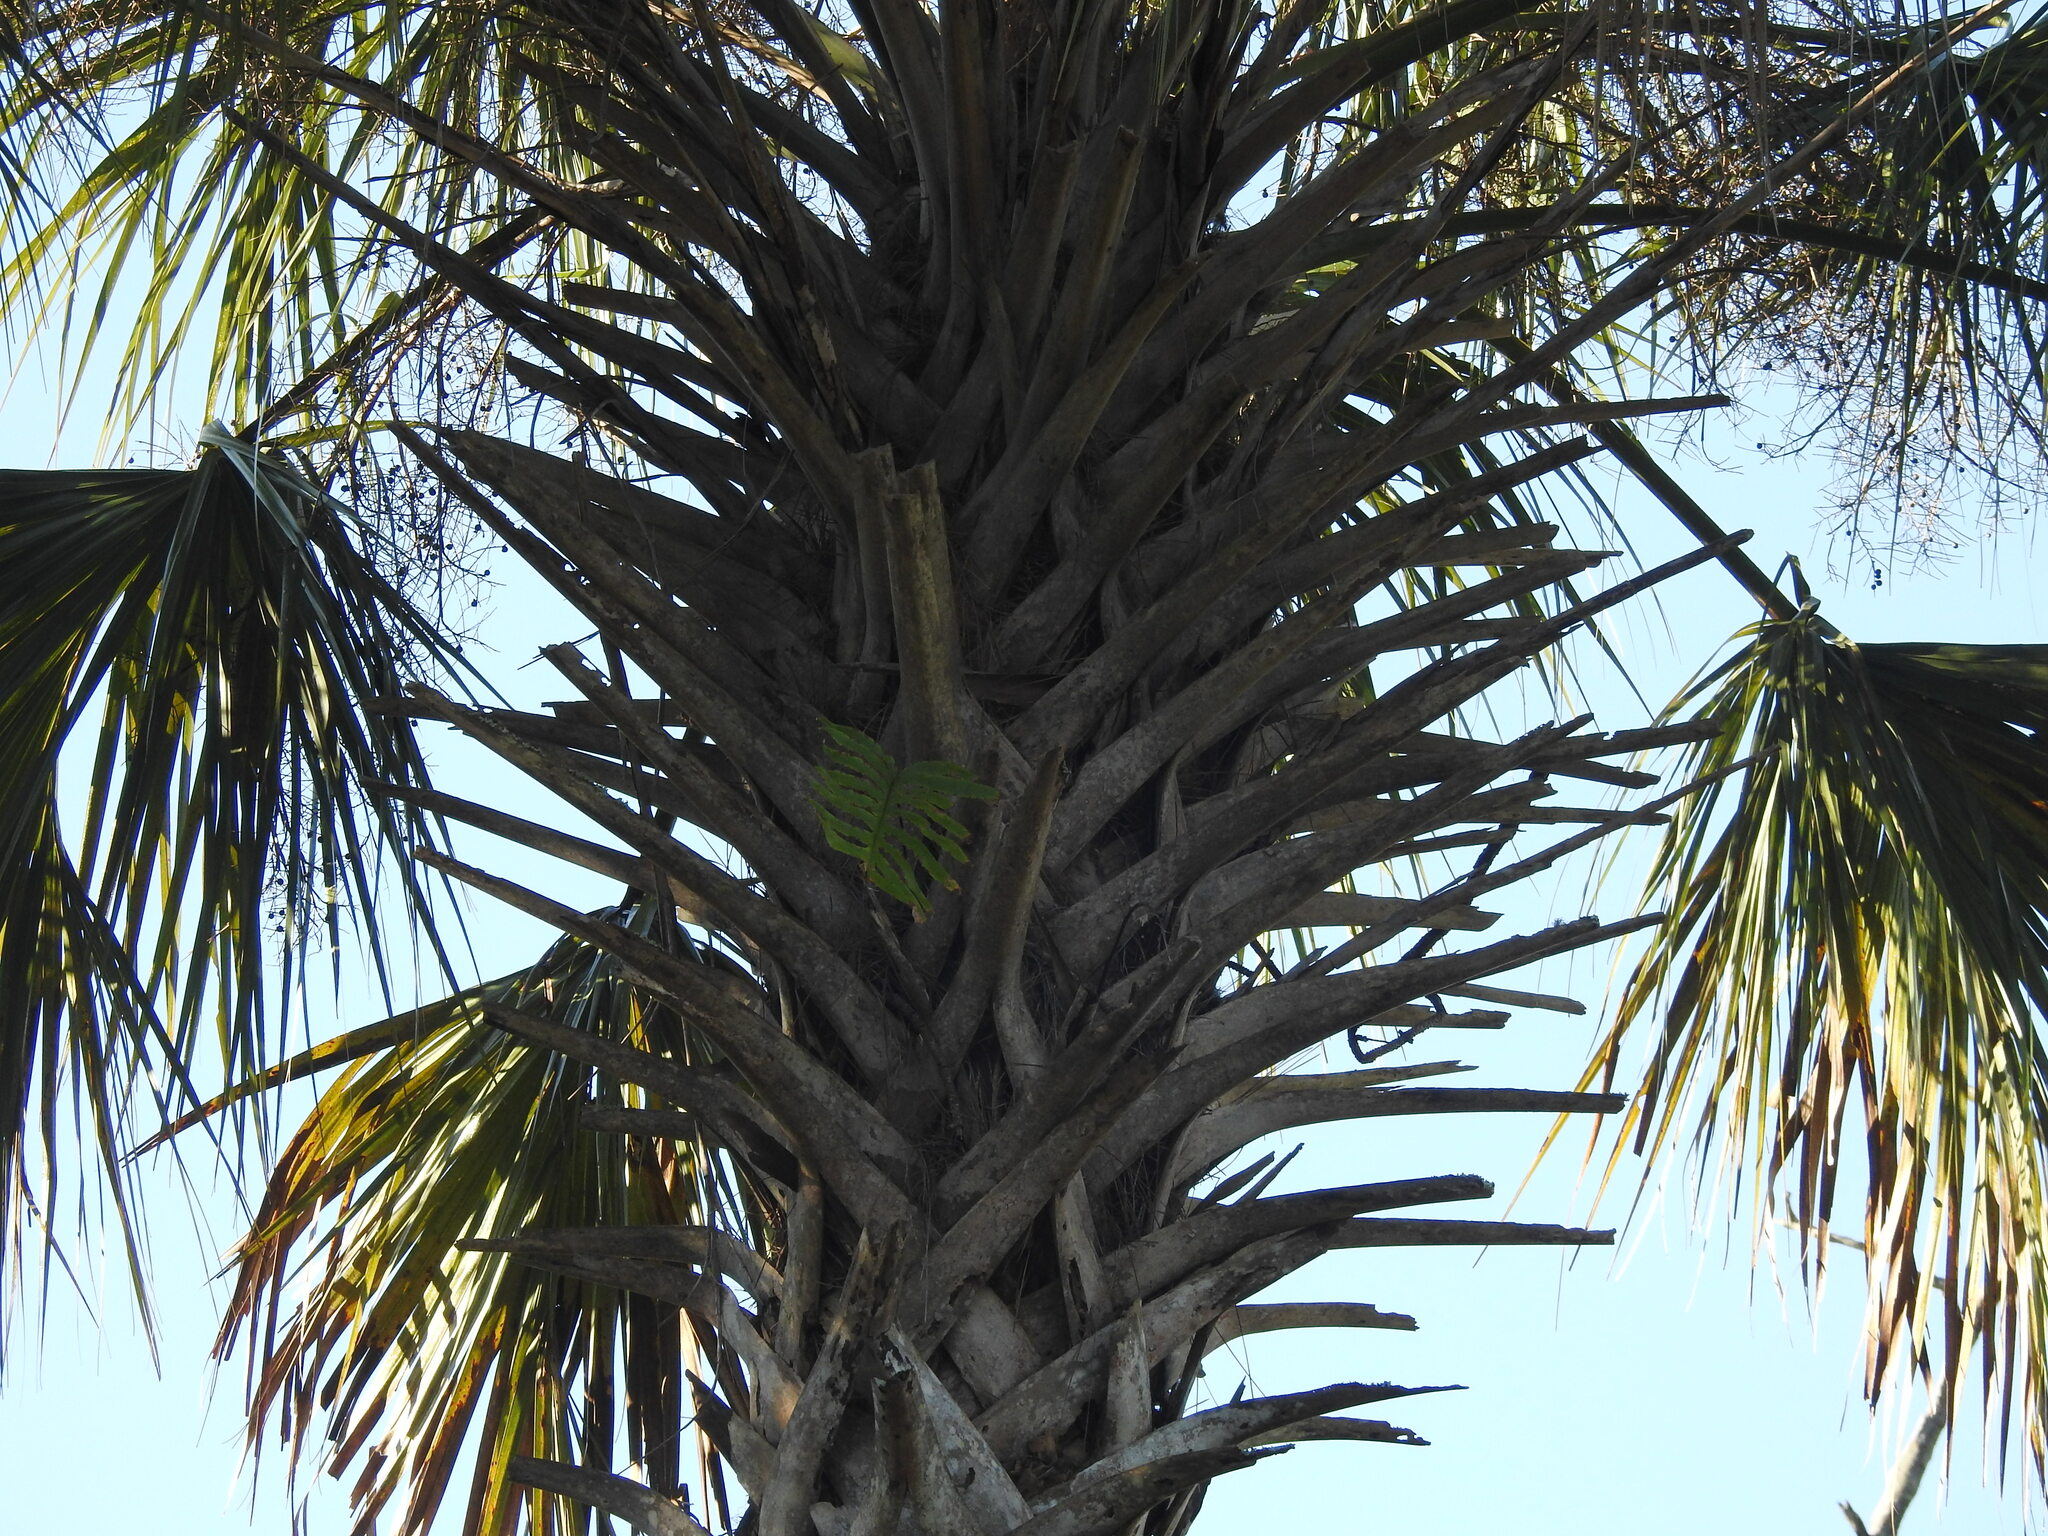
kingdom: Plantae
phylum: Tracheophyta
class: Liliopsida
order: Arecales
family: Arecaceae
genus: Sabal
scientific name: Sabal palmetto
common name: Blue palmetto
